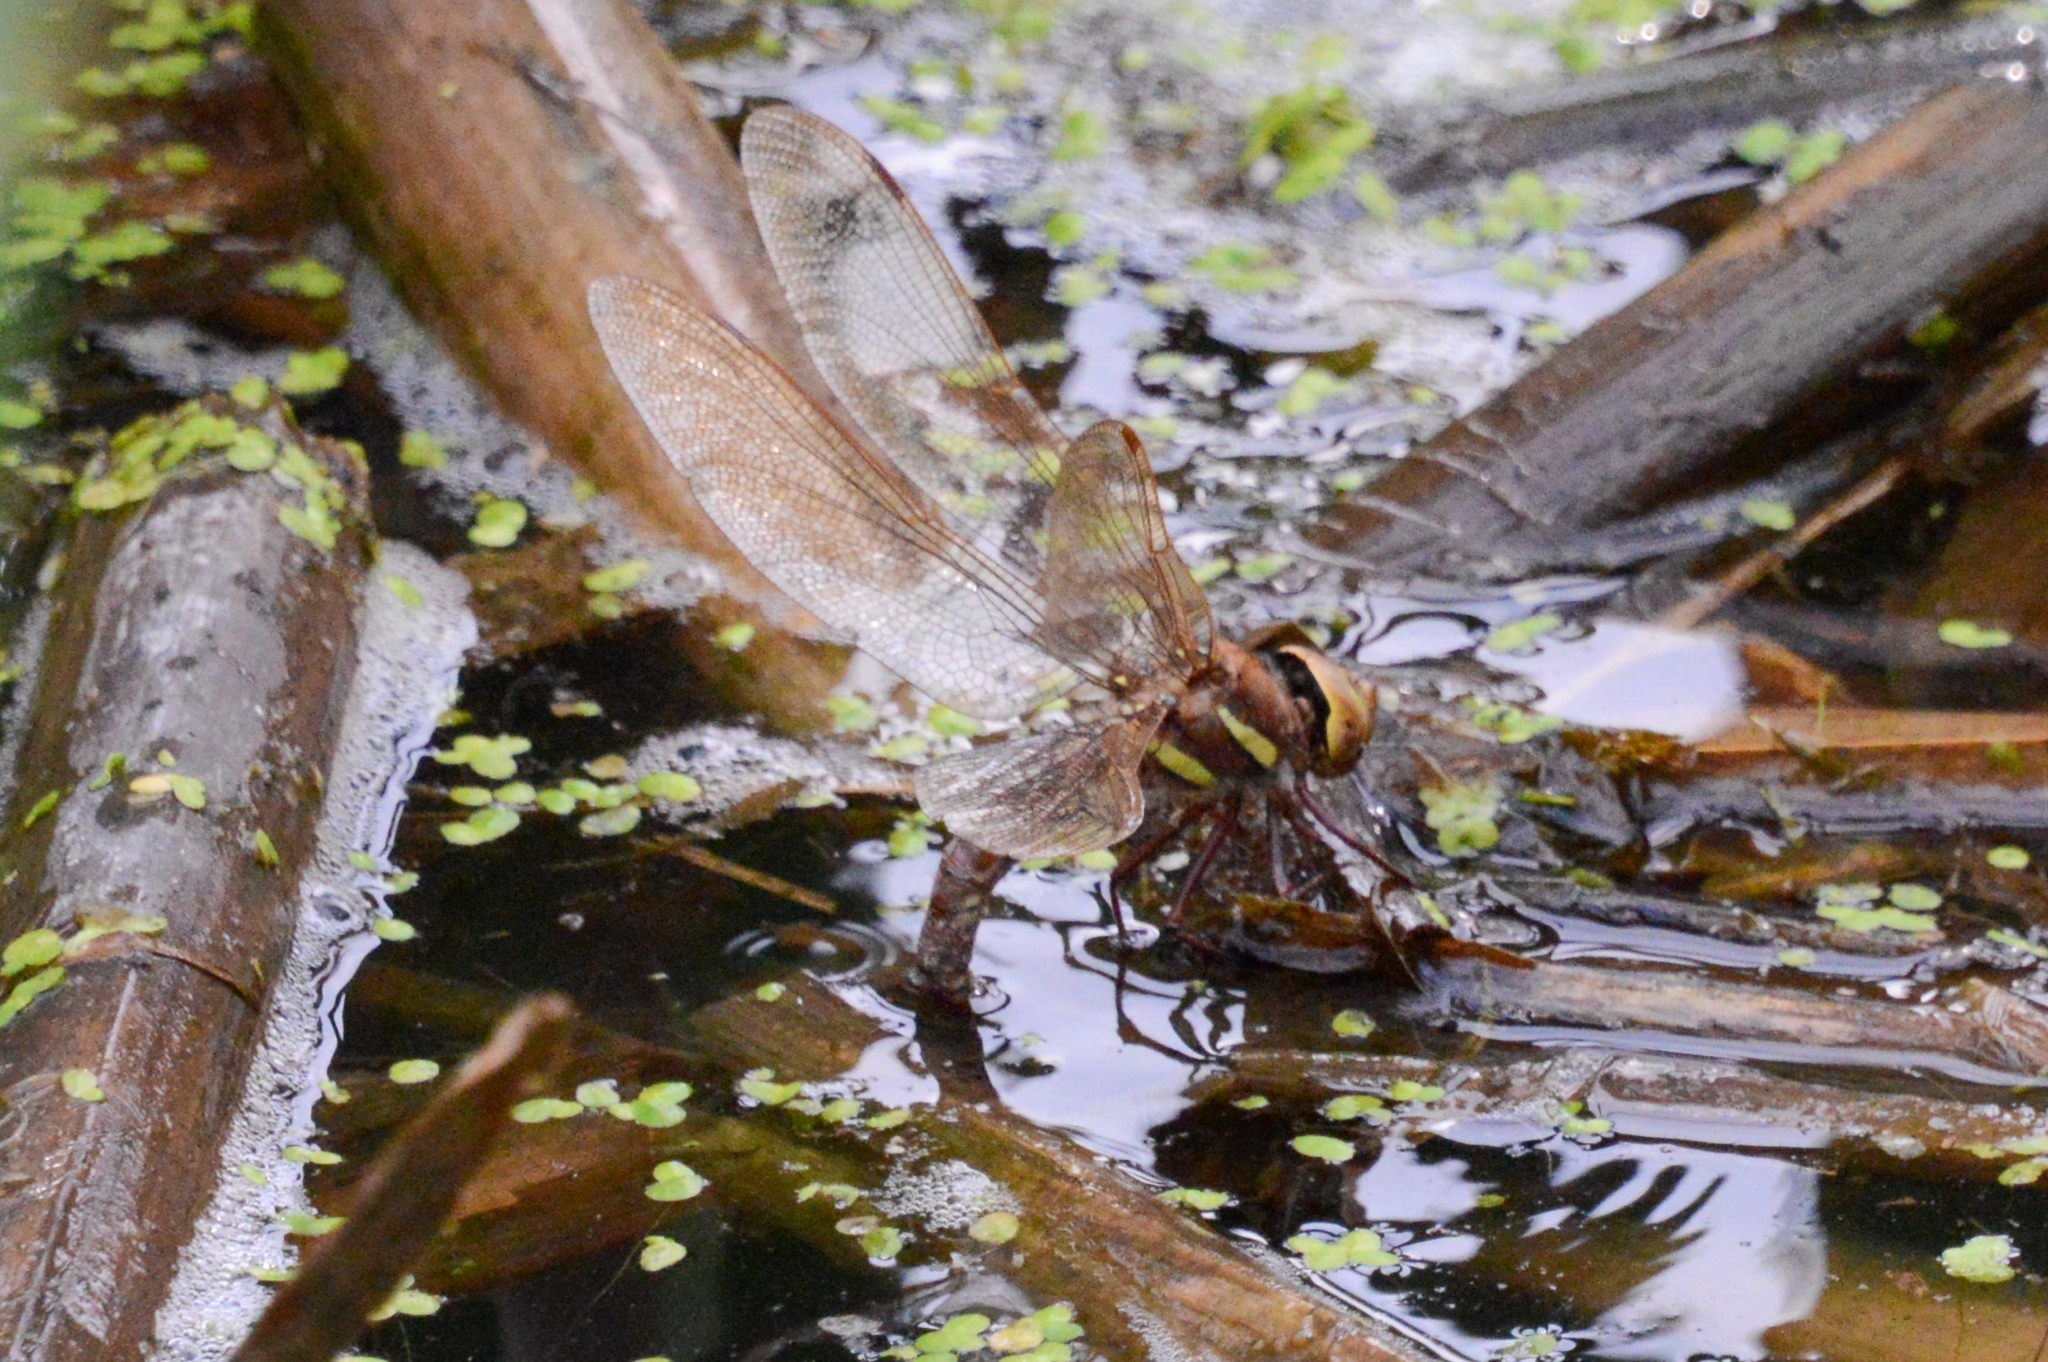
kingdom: Animalia
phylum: Arthropoda
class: Insecta
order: Odonata
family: Aeshnidae
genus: Aeshna
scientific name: Aeshna grandis
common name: Brown hawker
